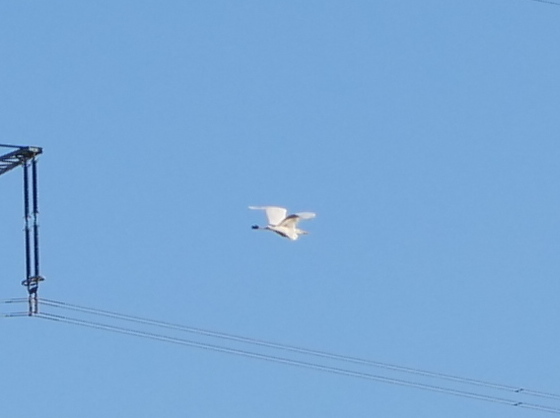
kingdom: Animalia
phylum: Chordata
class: Aves
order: Pelecaniformes
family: Ardeidae
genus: Ardea
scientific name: Ardea alba
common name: Great egret
